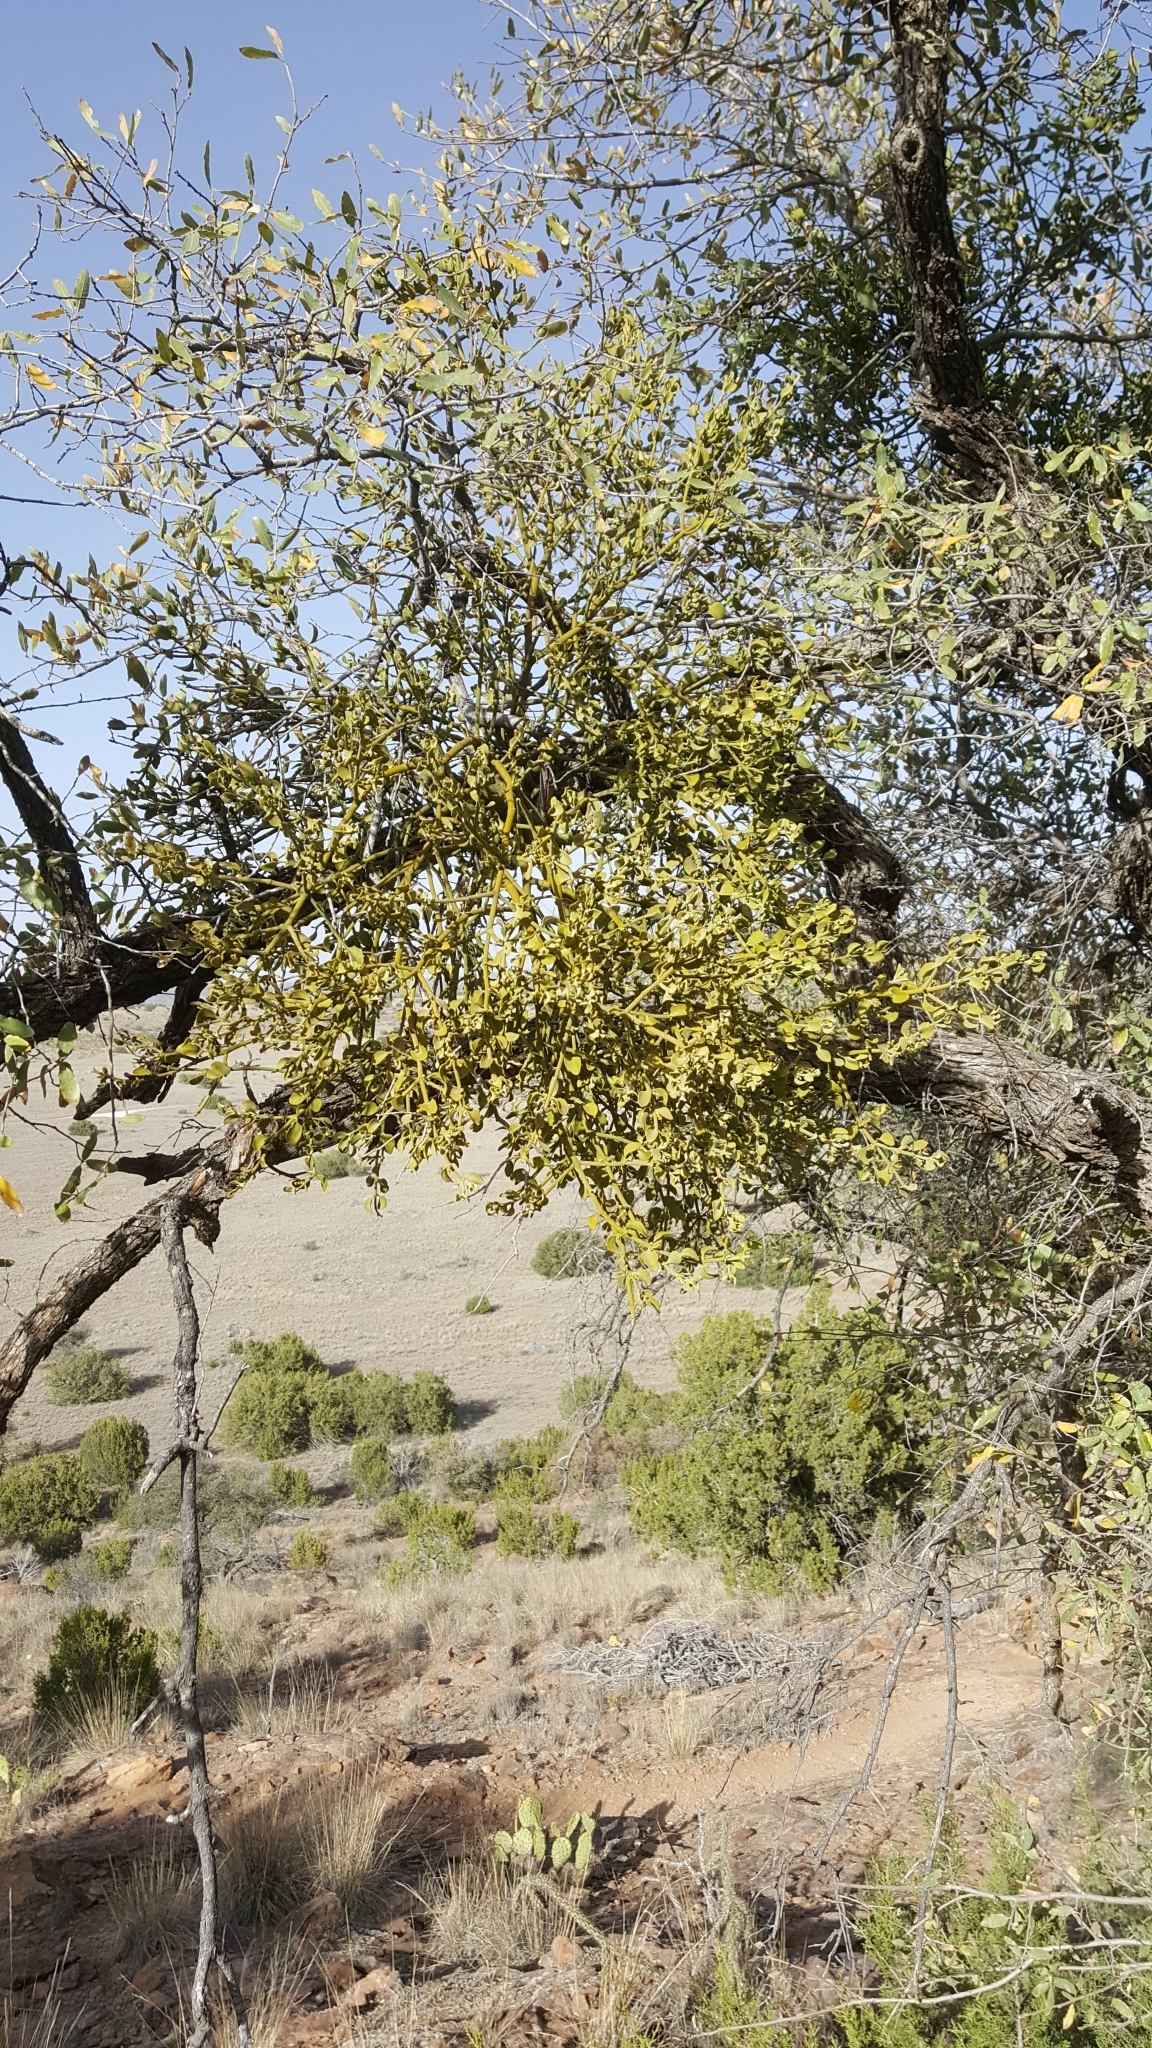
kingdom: Plantae
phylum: Tracheophyta
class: Magnoliopsida
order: Santalales
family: Viscaceae
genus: Phoradendron
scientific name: Phoradendron leucarpum
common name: Pacific mistletoe
